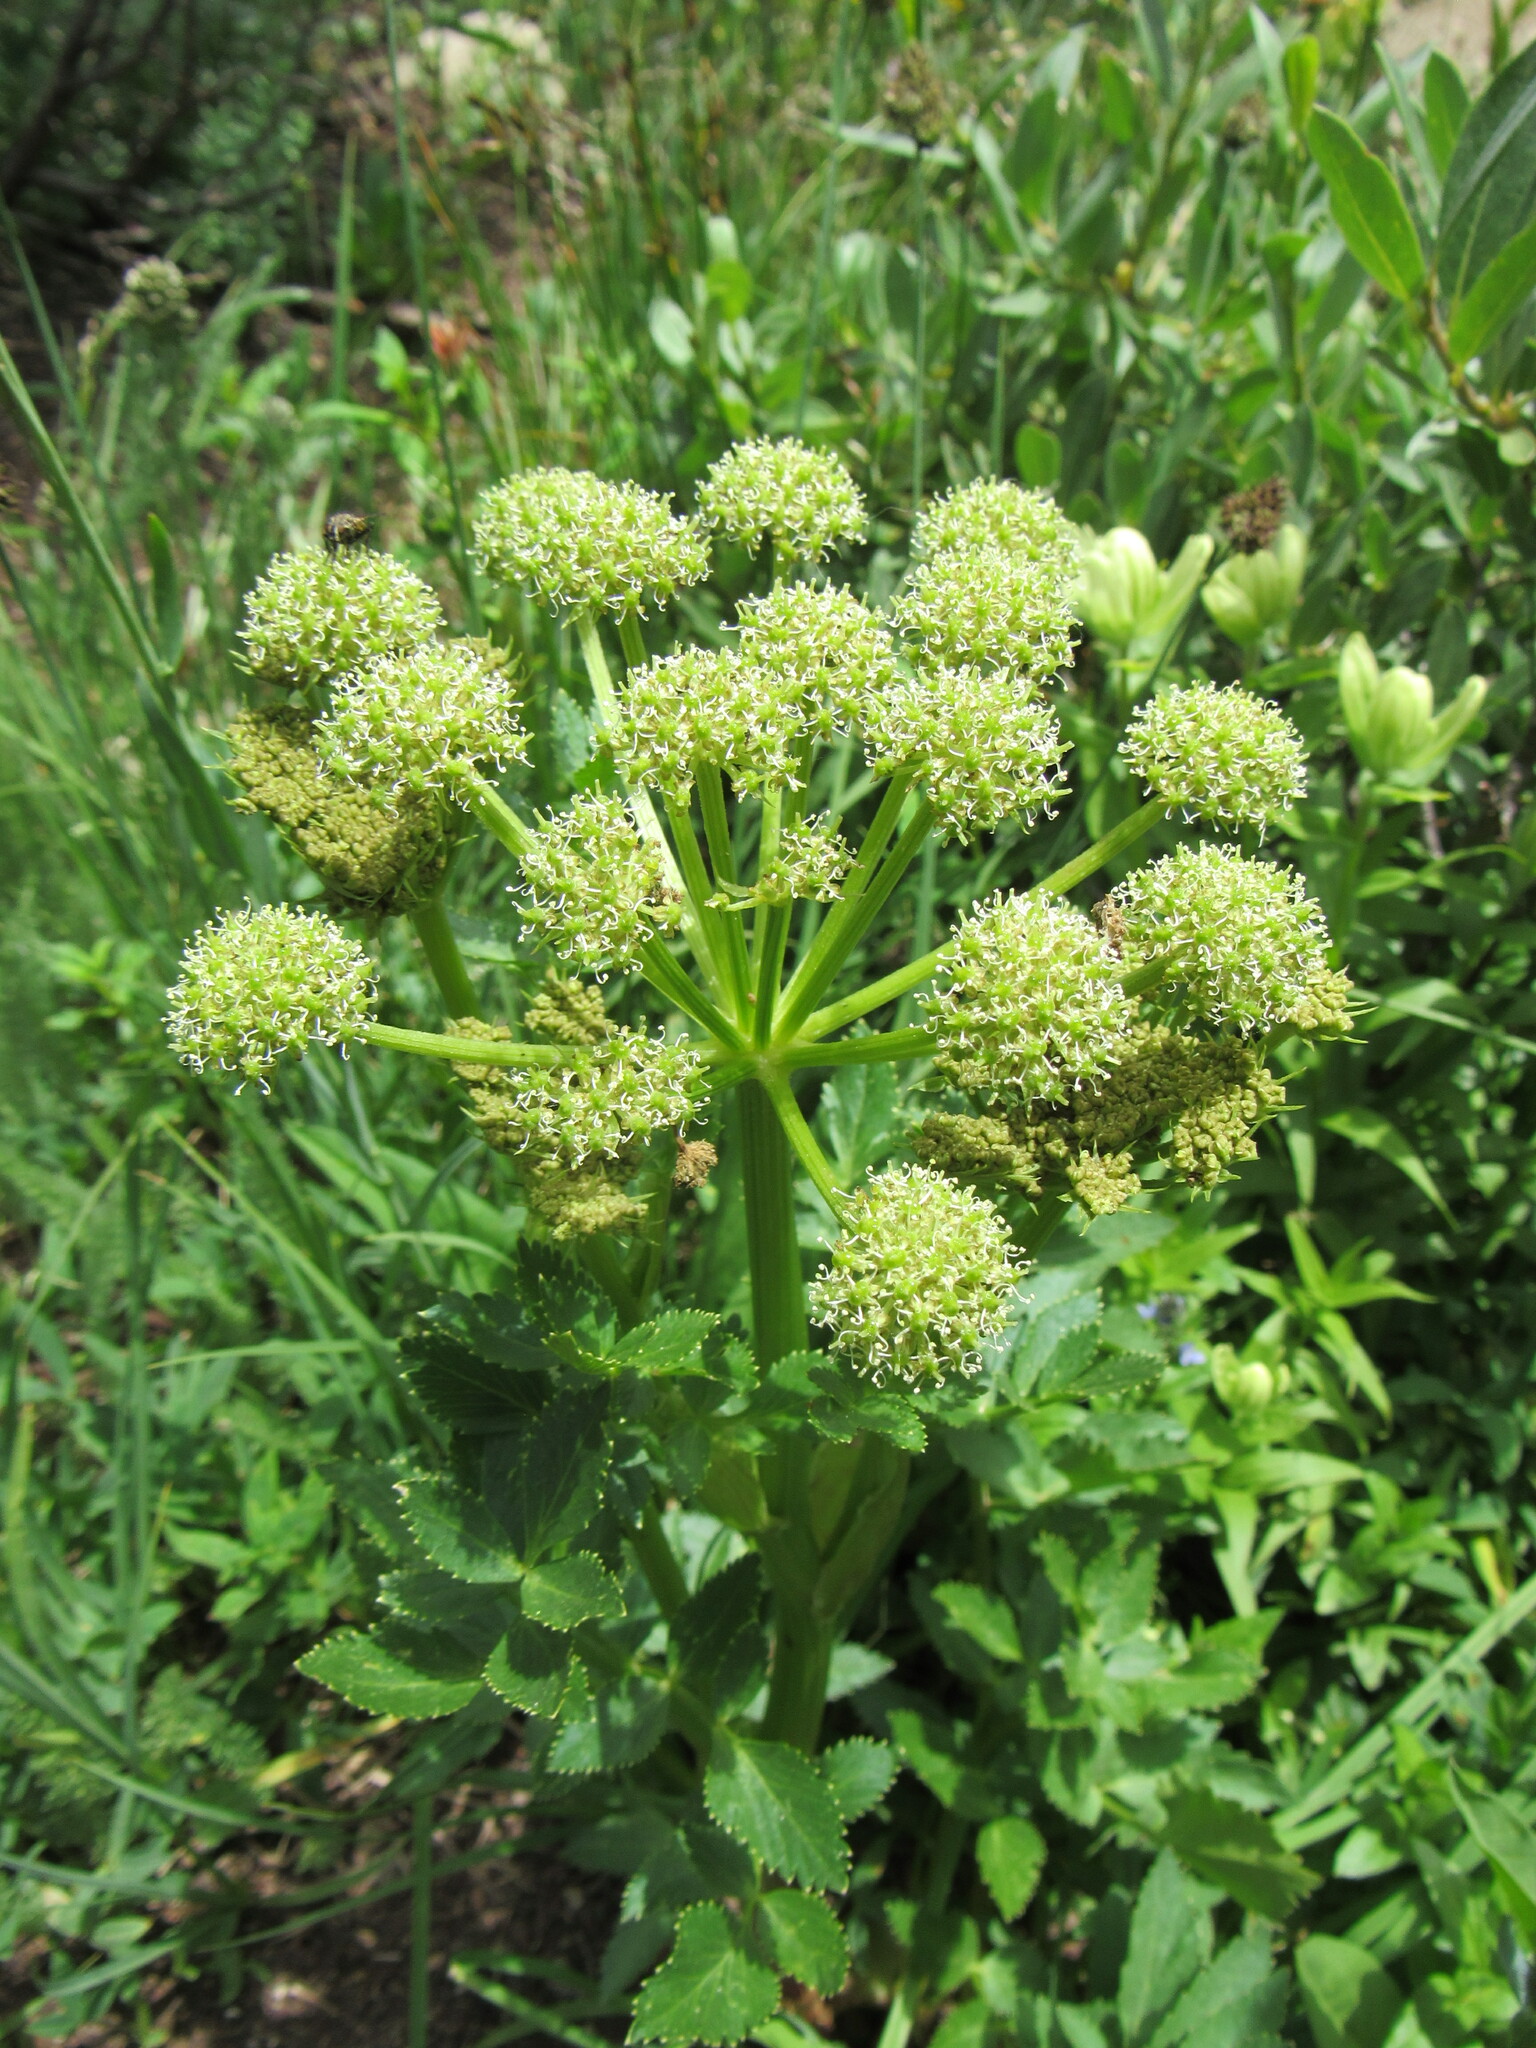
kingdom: Plantae
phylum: Tracheophyta
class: Magnoliopsida
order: Apiales
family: Apiaceae
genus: Angelica
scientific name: Angelica grayi
